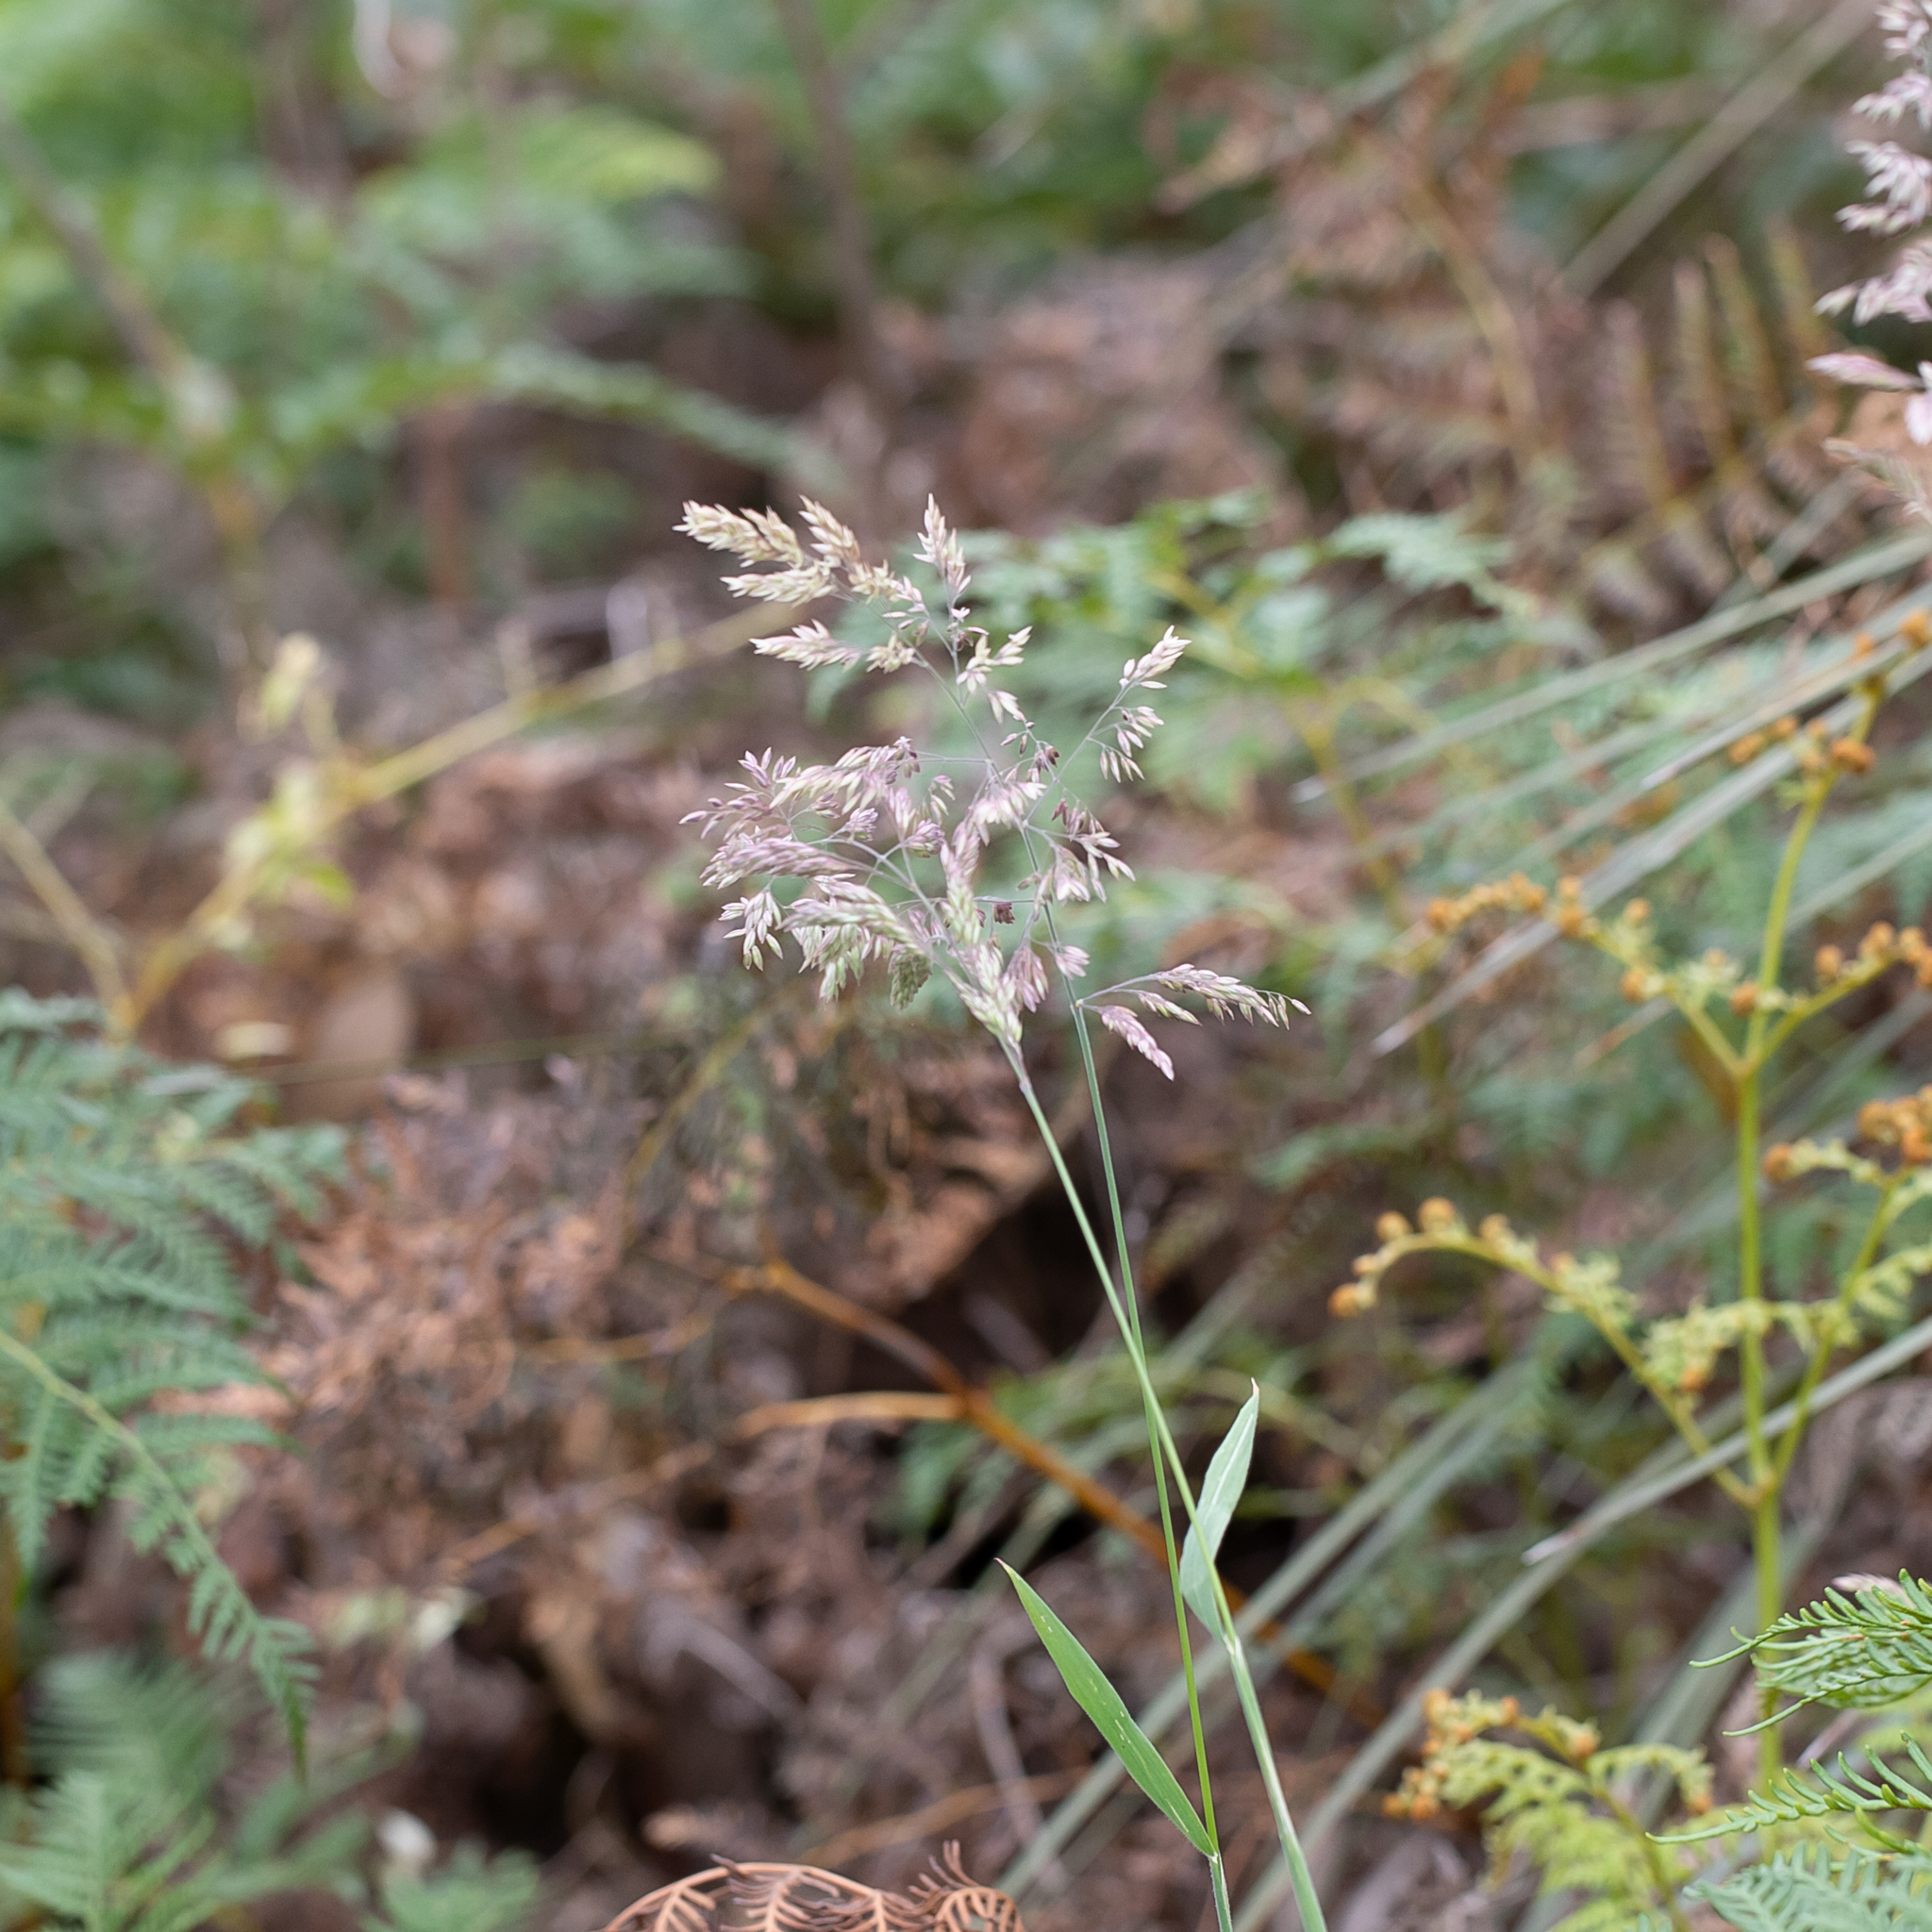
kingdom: Plantae
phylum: Tracheophyta
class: Liliopsida
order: Poales
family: Poaceae
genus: Holcus
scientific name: Holcus lanatus
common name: Yorkshire-fog
